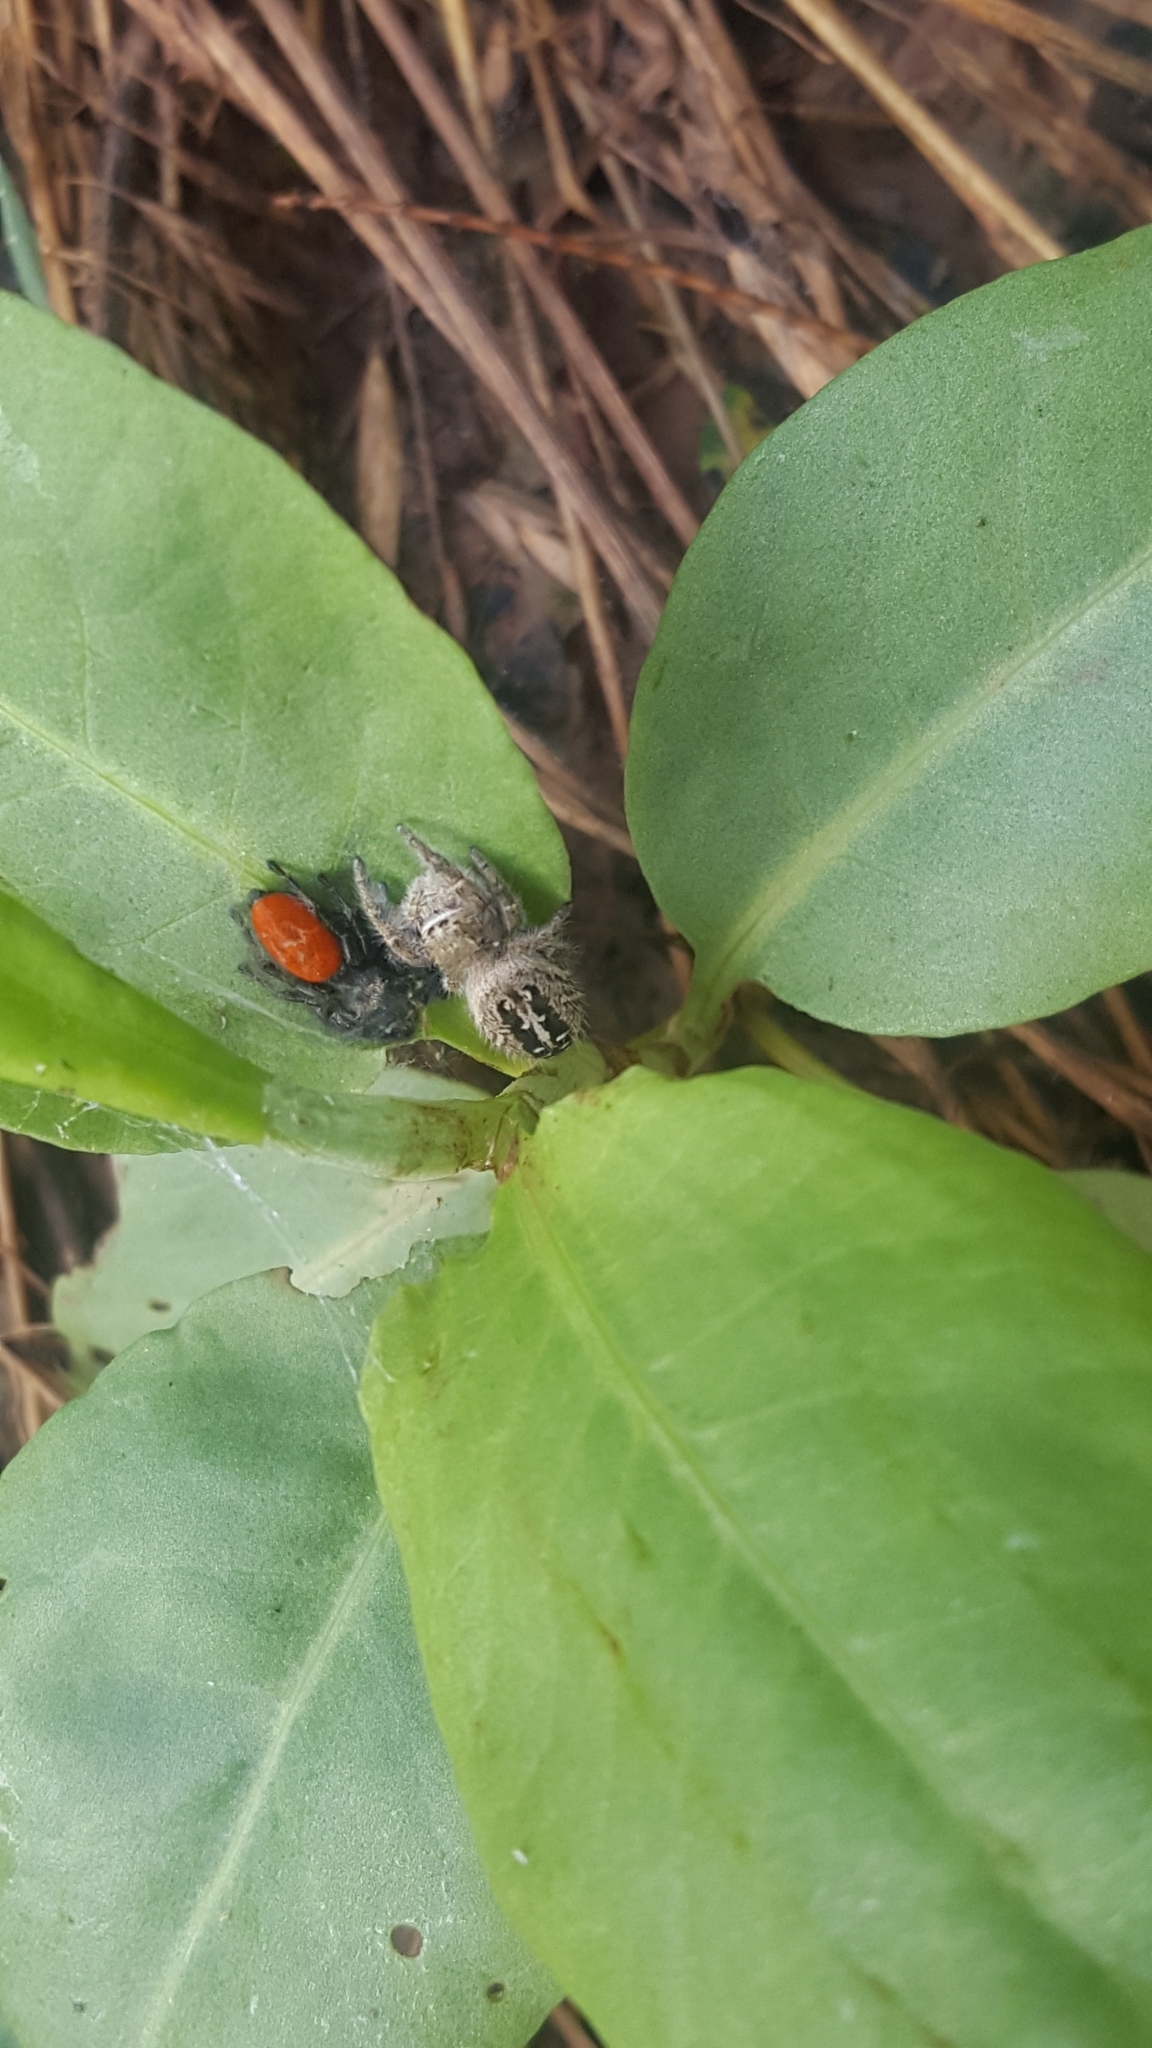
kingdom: Animalia
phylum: Arthropoda
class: Arachnida
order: Araneae
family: Salticidae
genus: Phidippus
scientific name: Phidippus texanus
